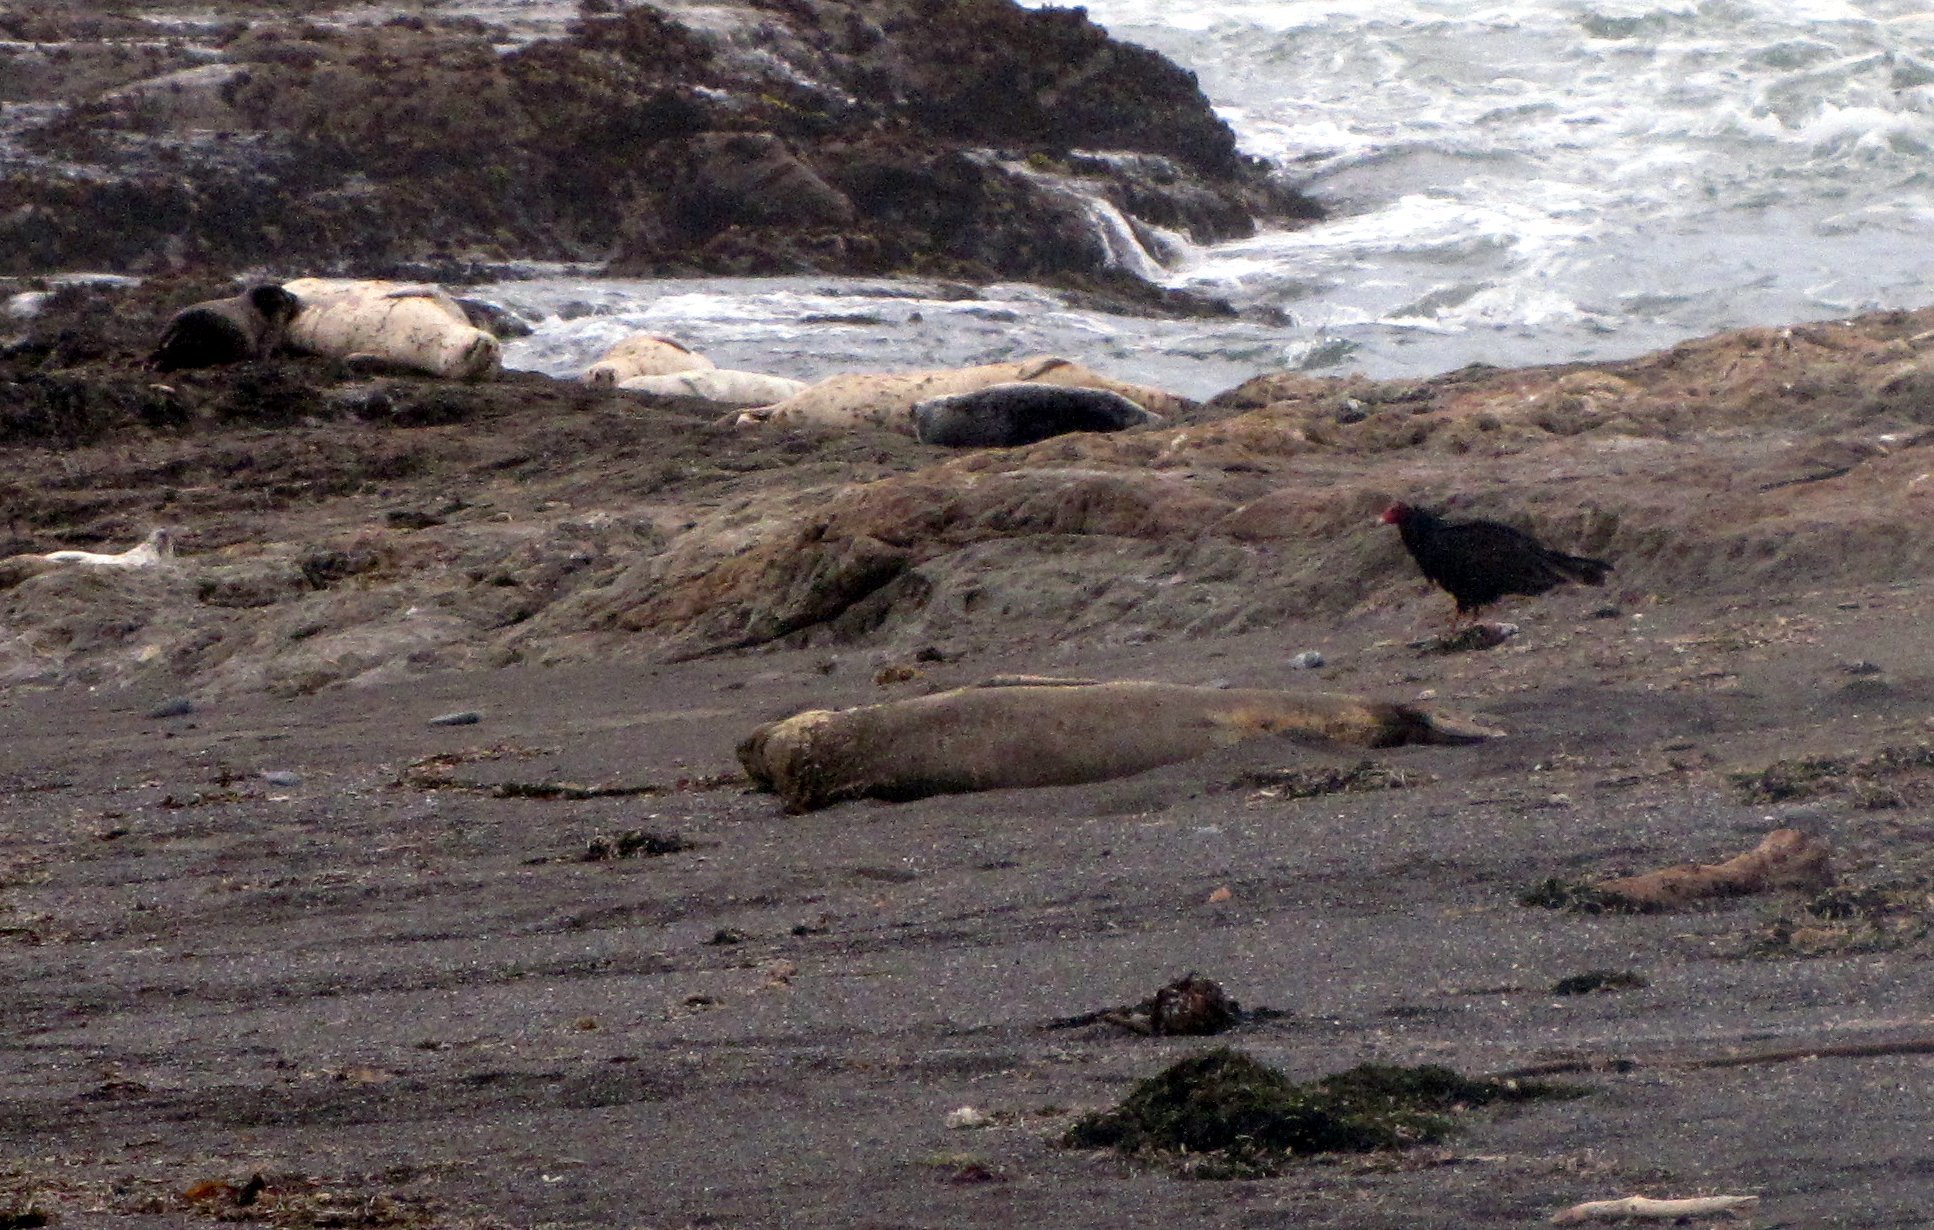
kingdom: Animalia
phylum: Chordata
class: Aves
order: Accipitriformes
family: Cathartidae
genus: Cathartes
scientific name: Cathartes aura
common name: Turkey vulture
